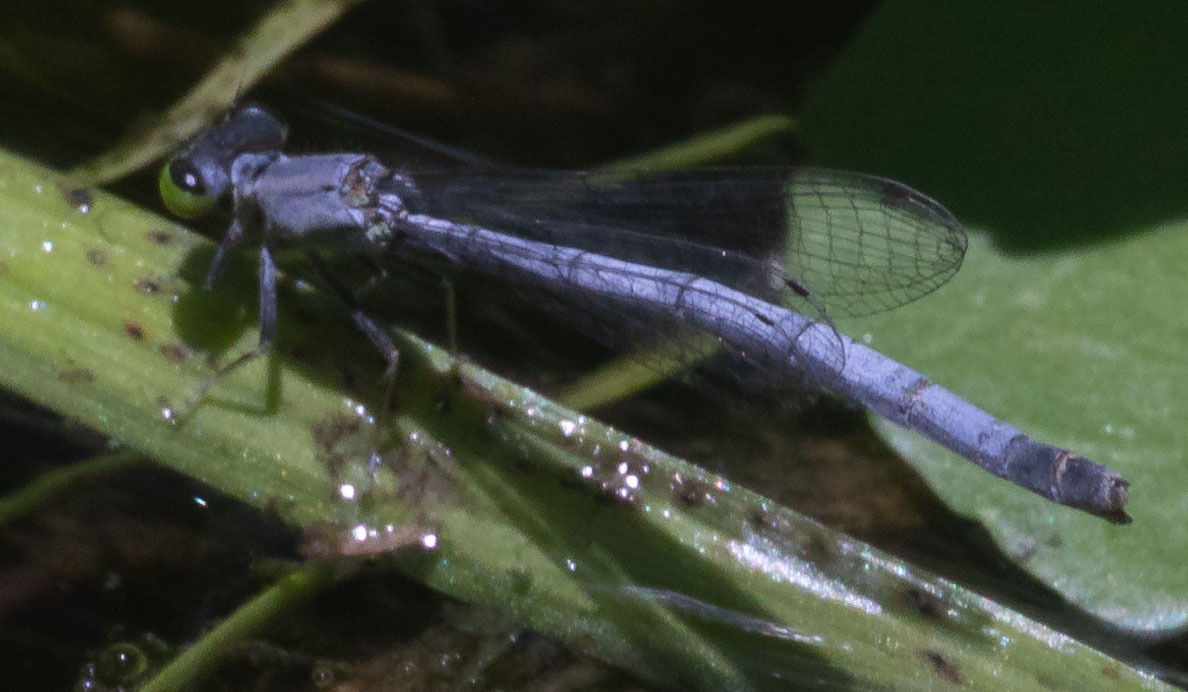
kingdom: Animalia
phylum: Arthropoda
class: Insecta
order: Odonata
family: Coenagrionidae
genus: Ischnura
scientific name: Ischnura perparva
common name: Western forktail
